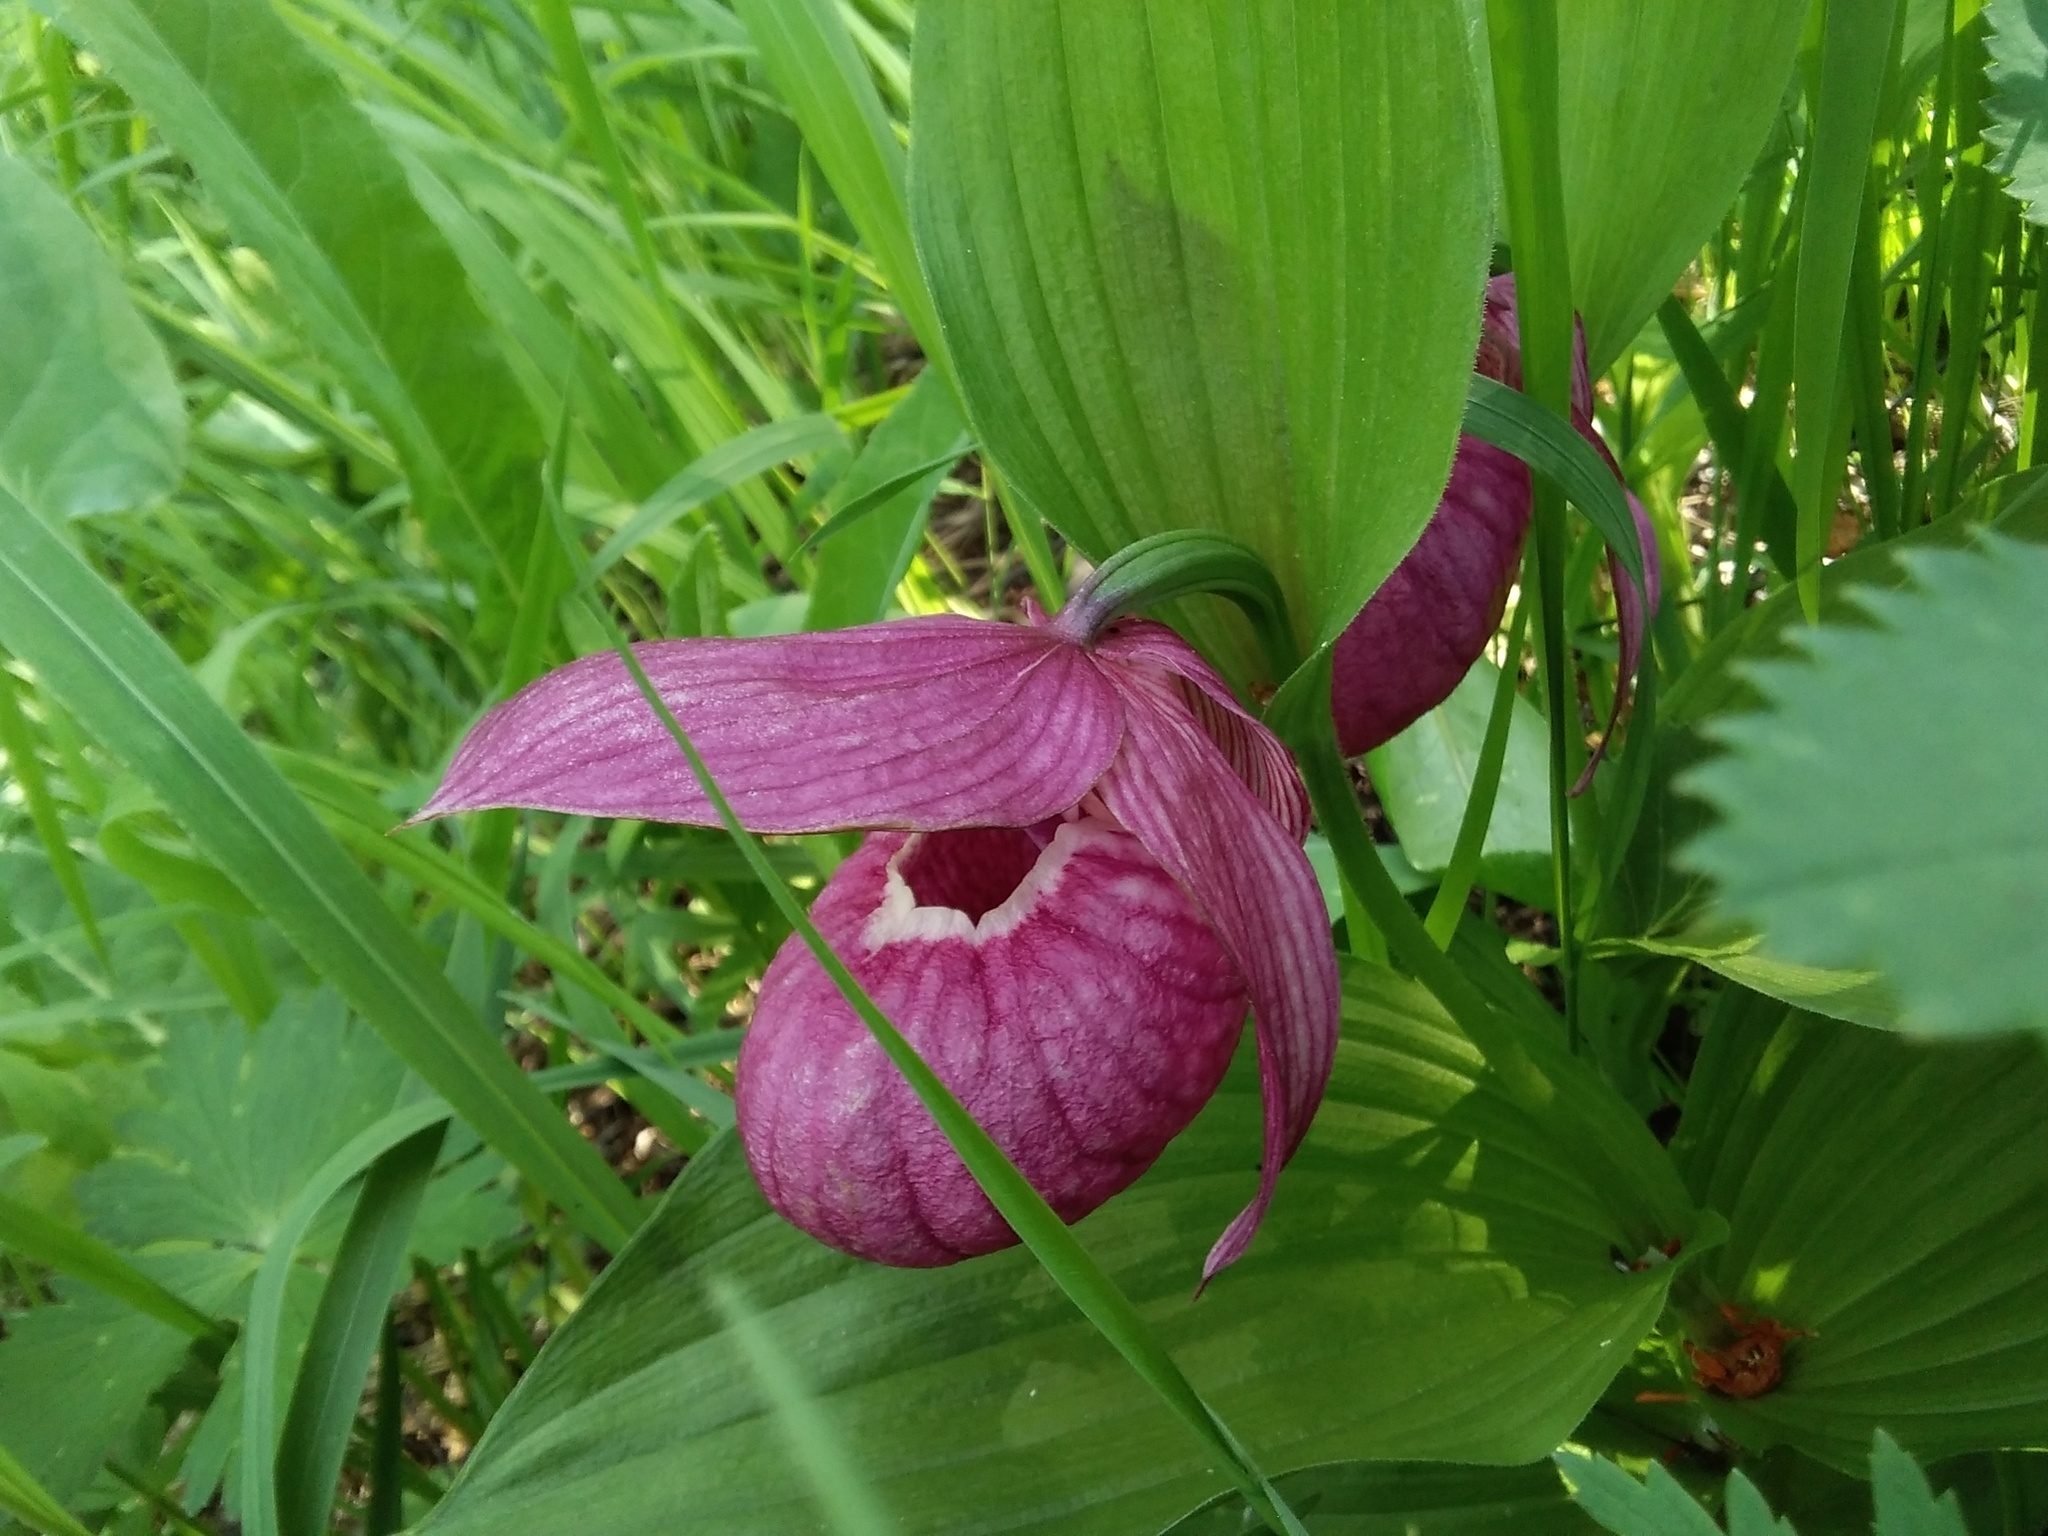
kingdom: Plantae
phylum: Tracheophyta
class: Liliopsida
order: Asparagales
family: Orchidaceae
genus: Cypripedium
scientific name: Cypripedium macranthos
